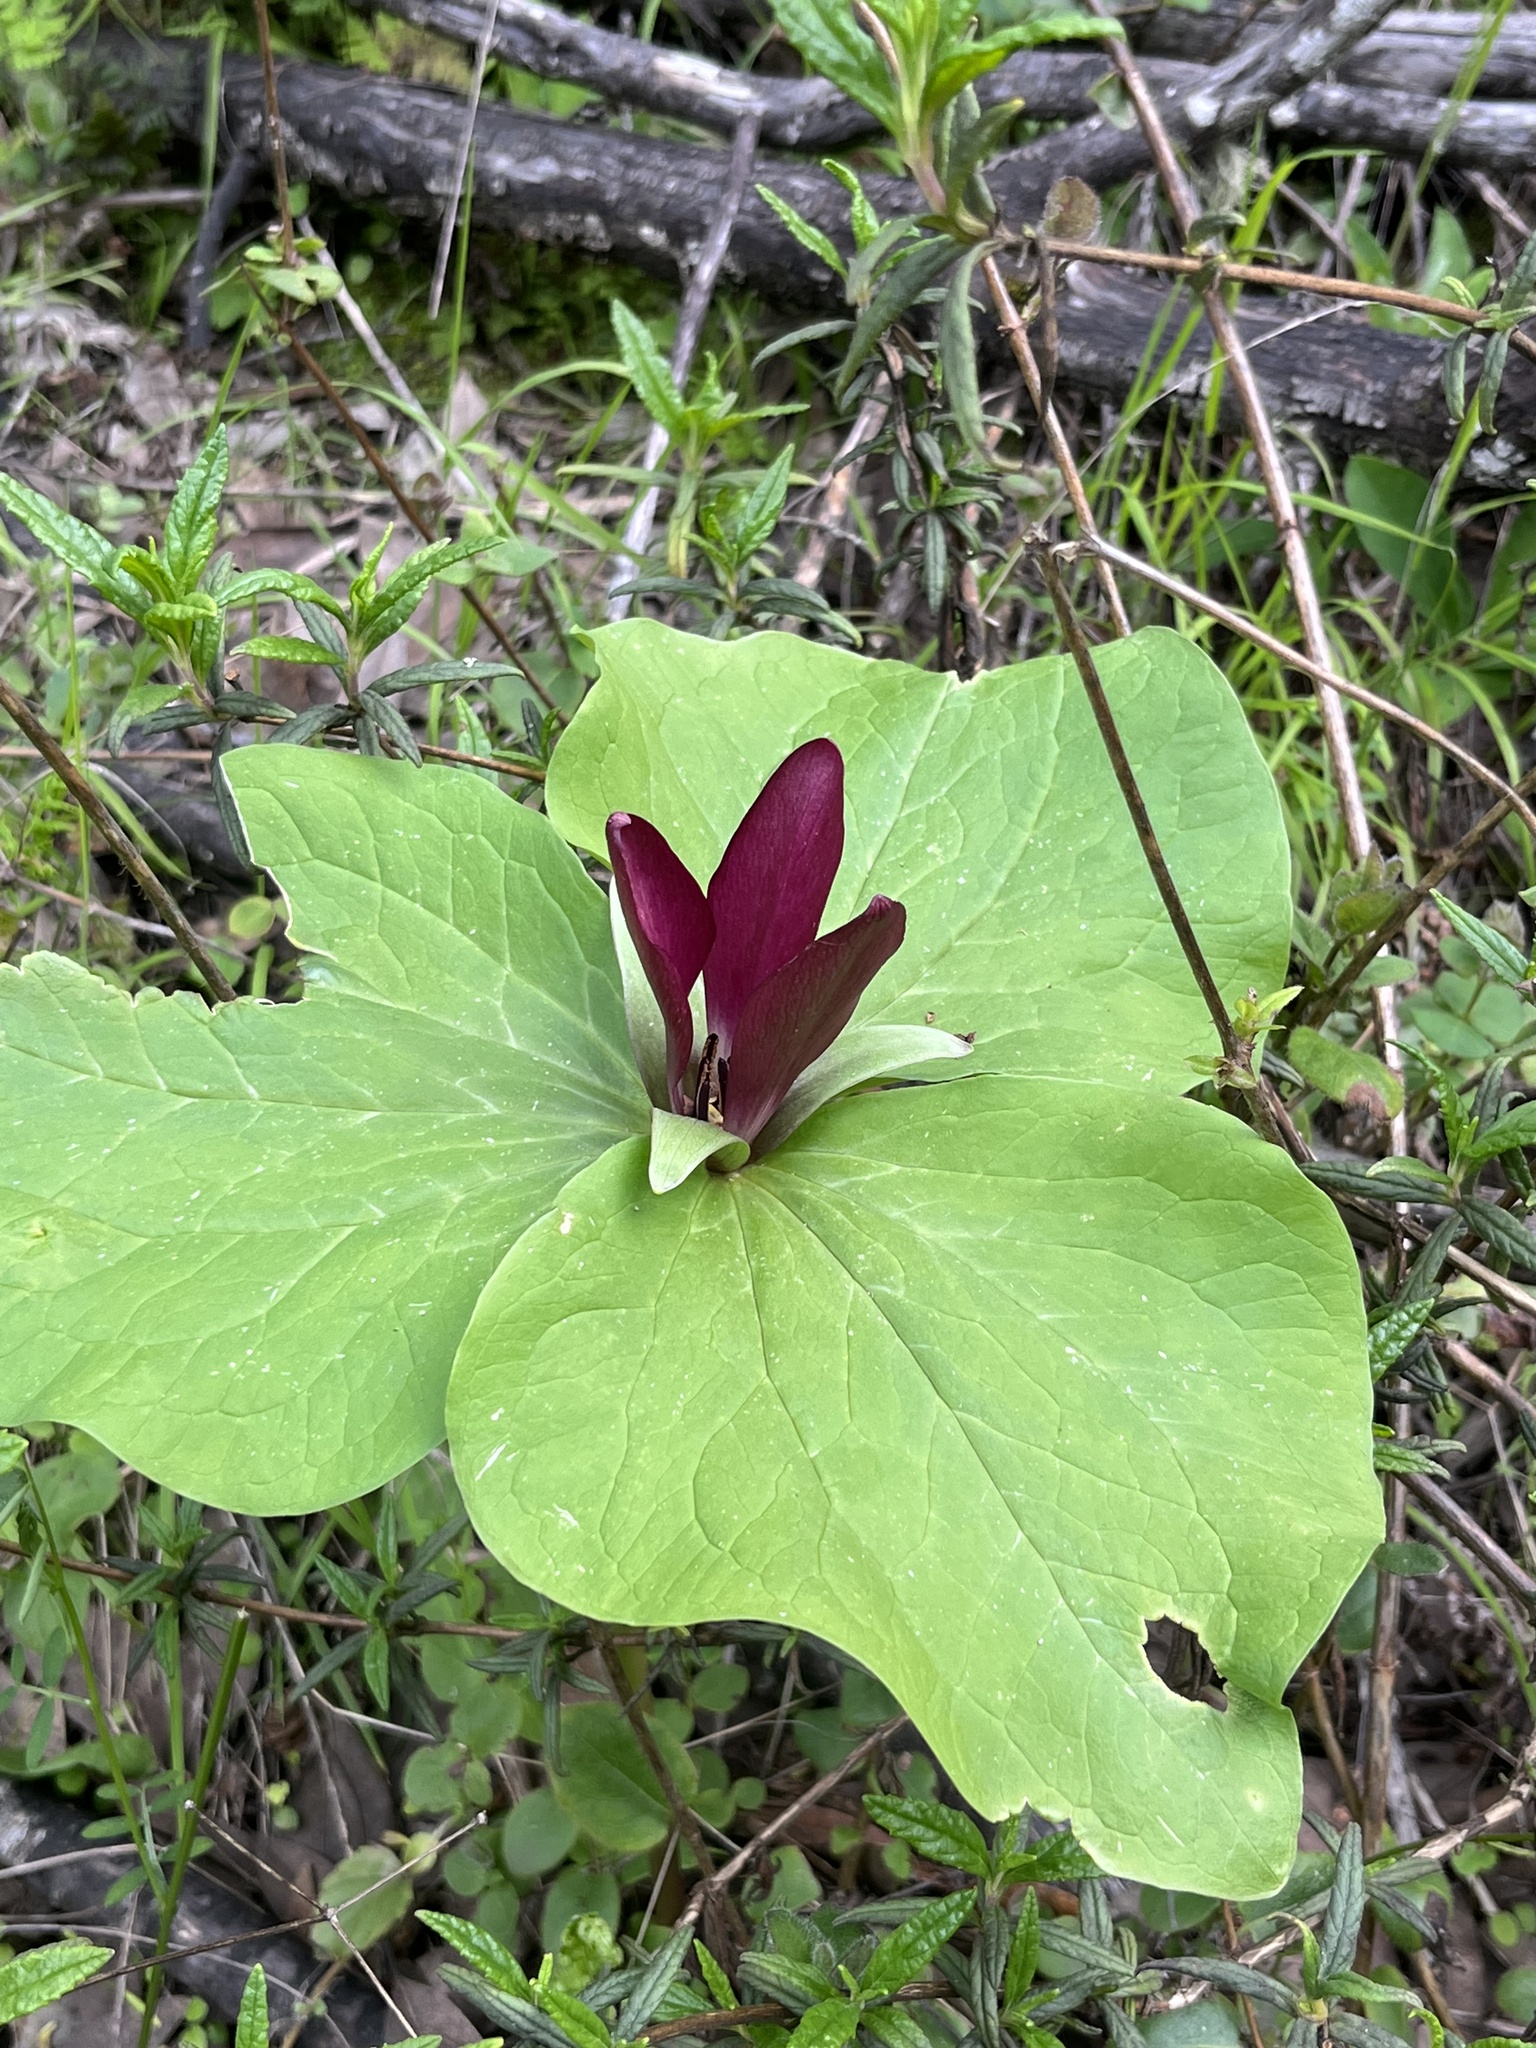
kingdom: Plantae
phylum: Tracheophyta
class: Liliopsida
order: Liliales
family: Melanthiaceae
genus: Trillium
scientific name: Trillium chloropetalum
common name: Giant trillium
